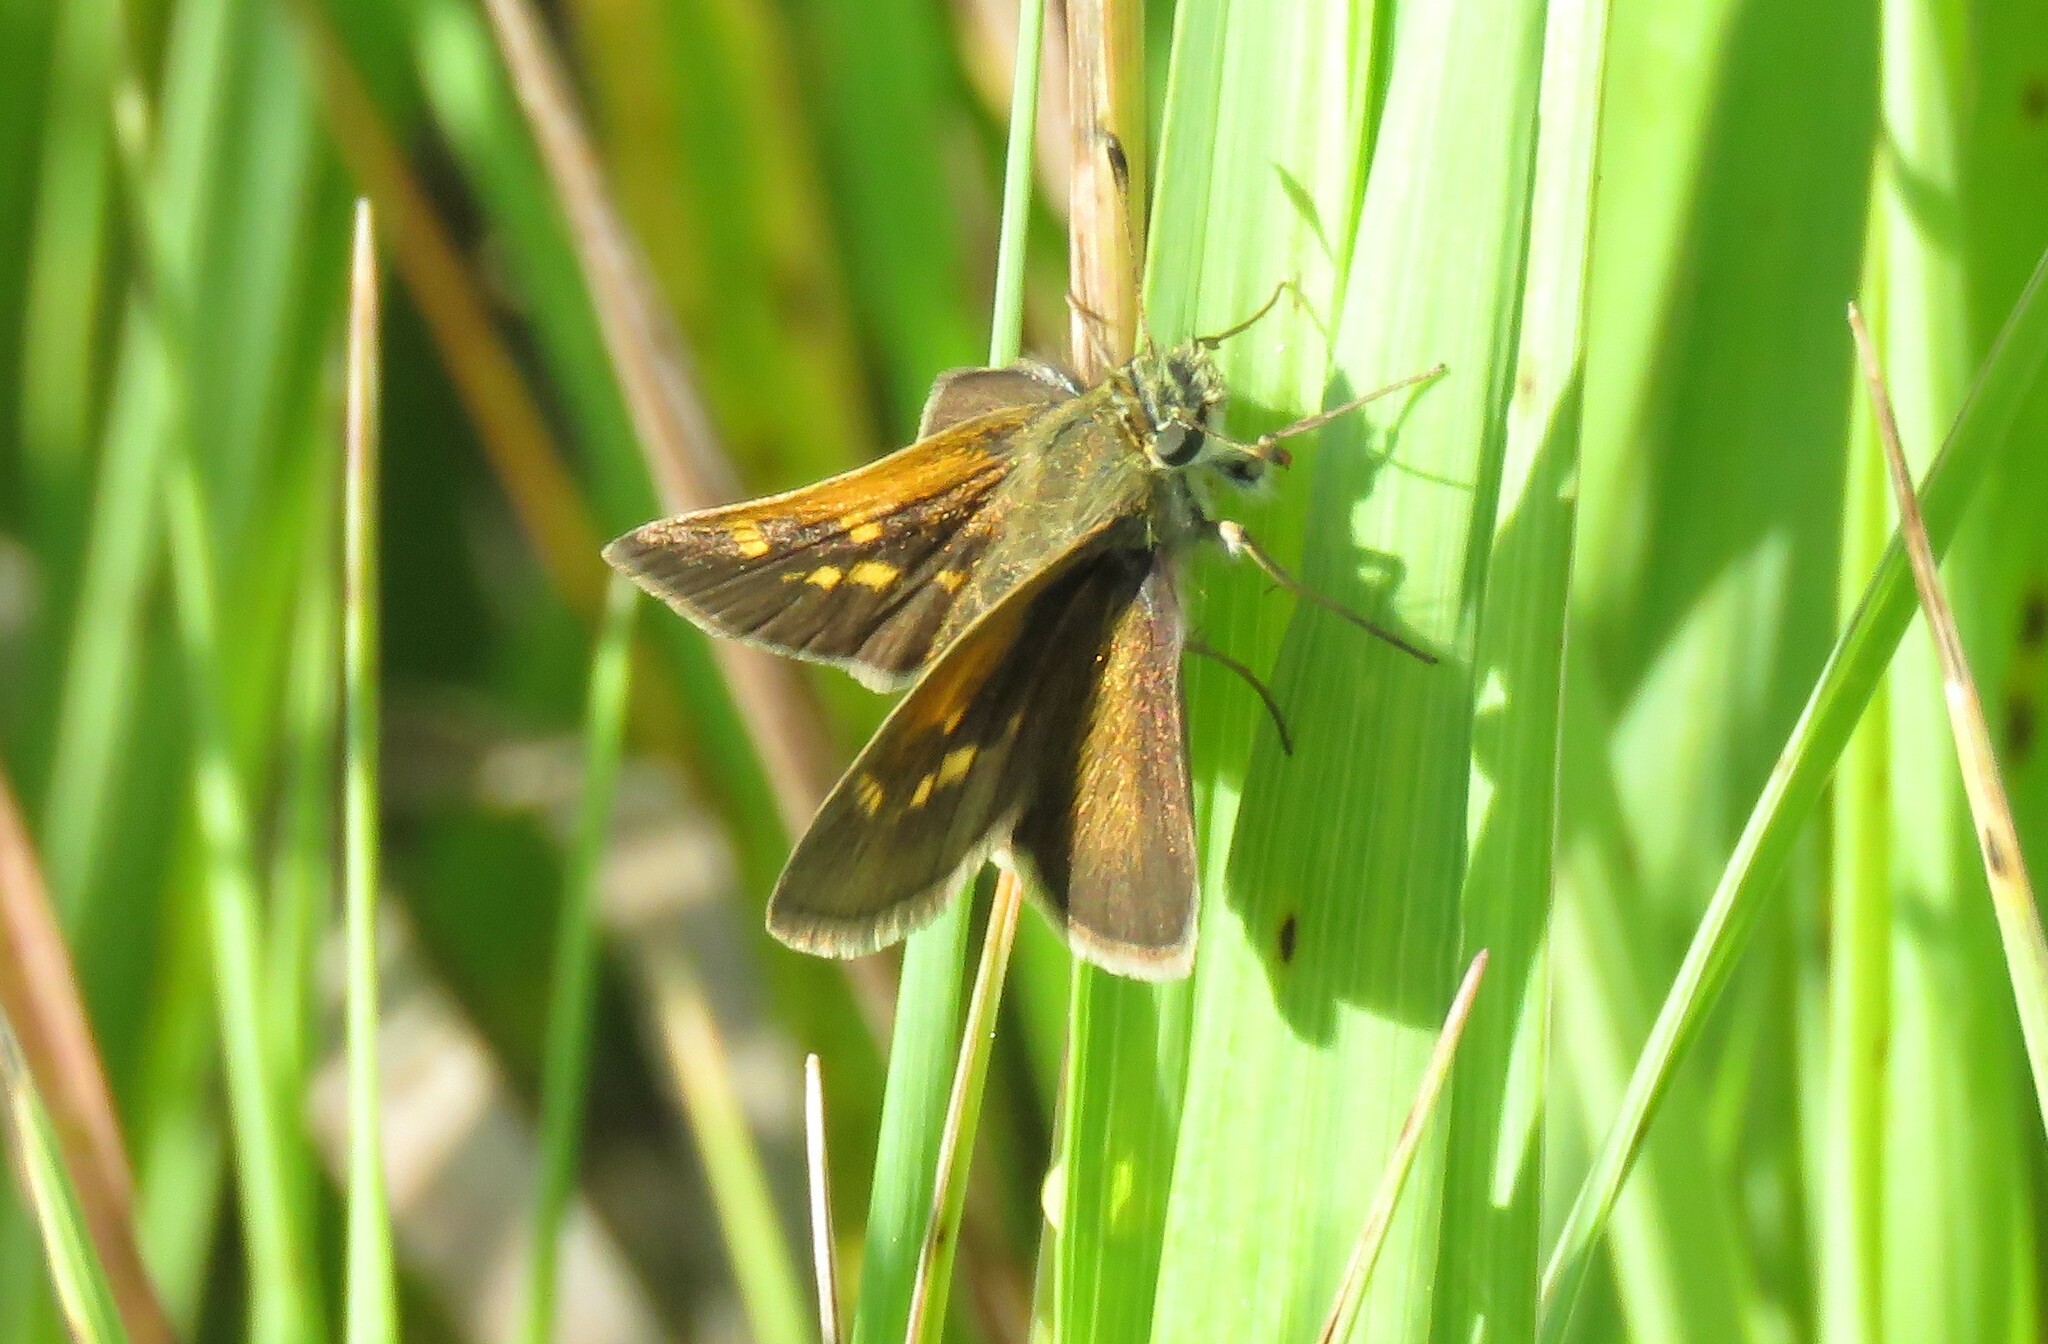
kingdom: Animalia
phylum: Arthropoda
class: Insecta
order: Lepidoptera
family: Hesperiidae
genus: Polites
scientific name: Polites themistocles
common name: Tawny-edged skipper
